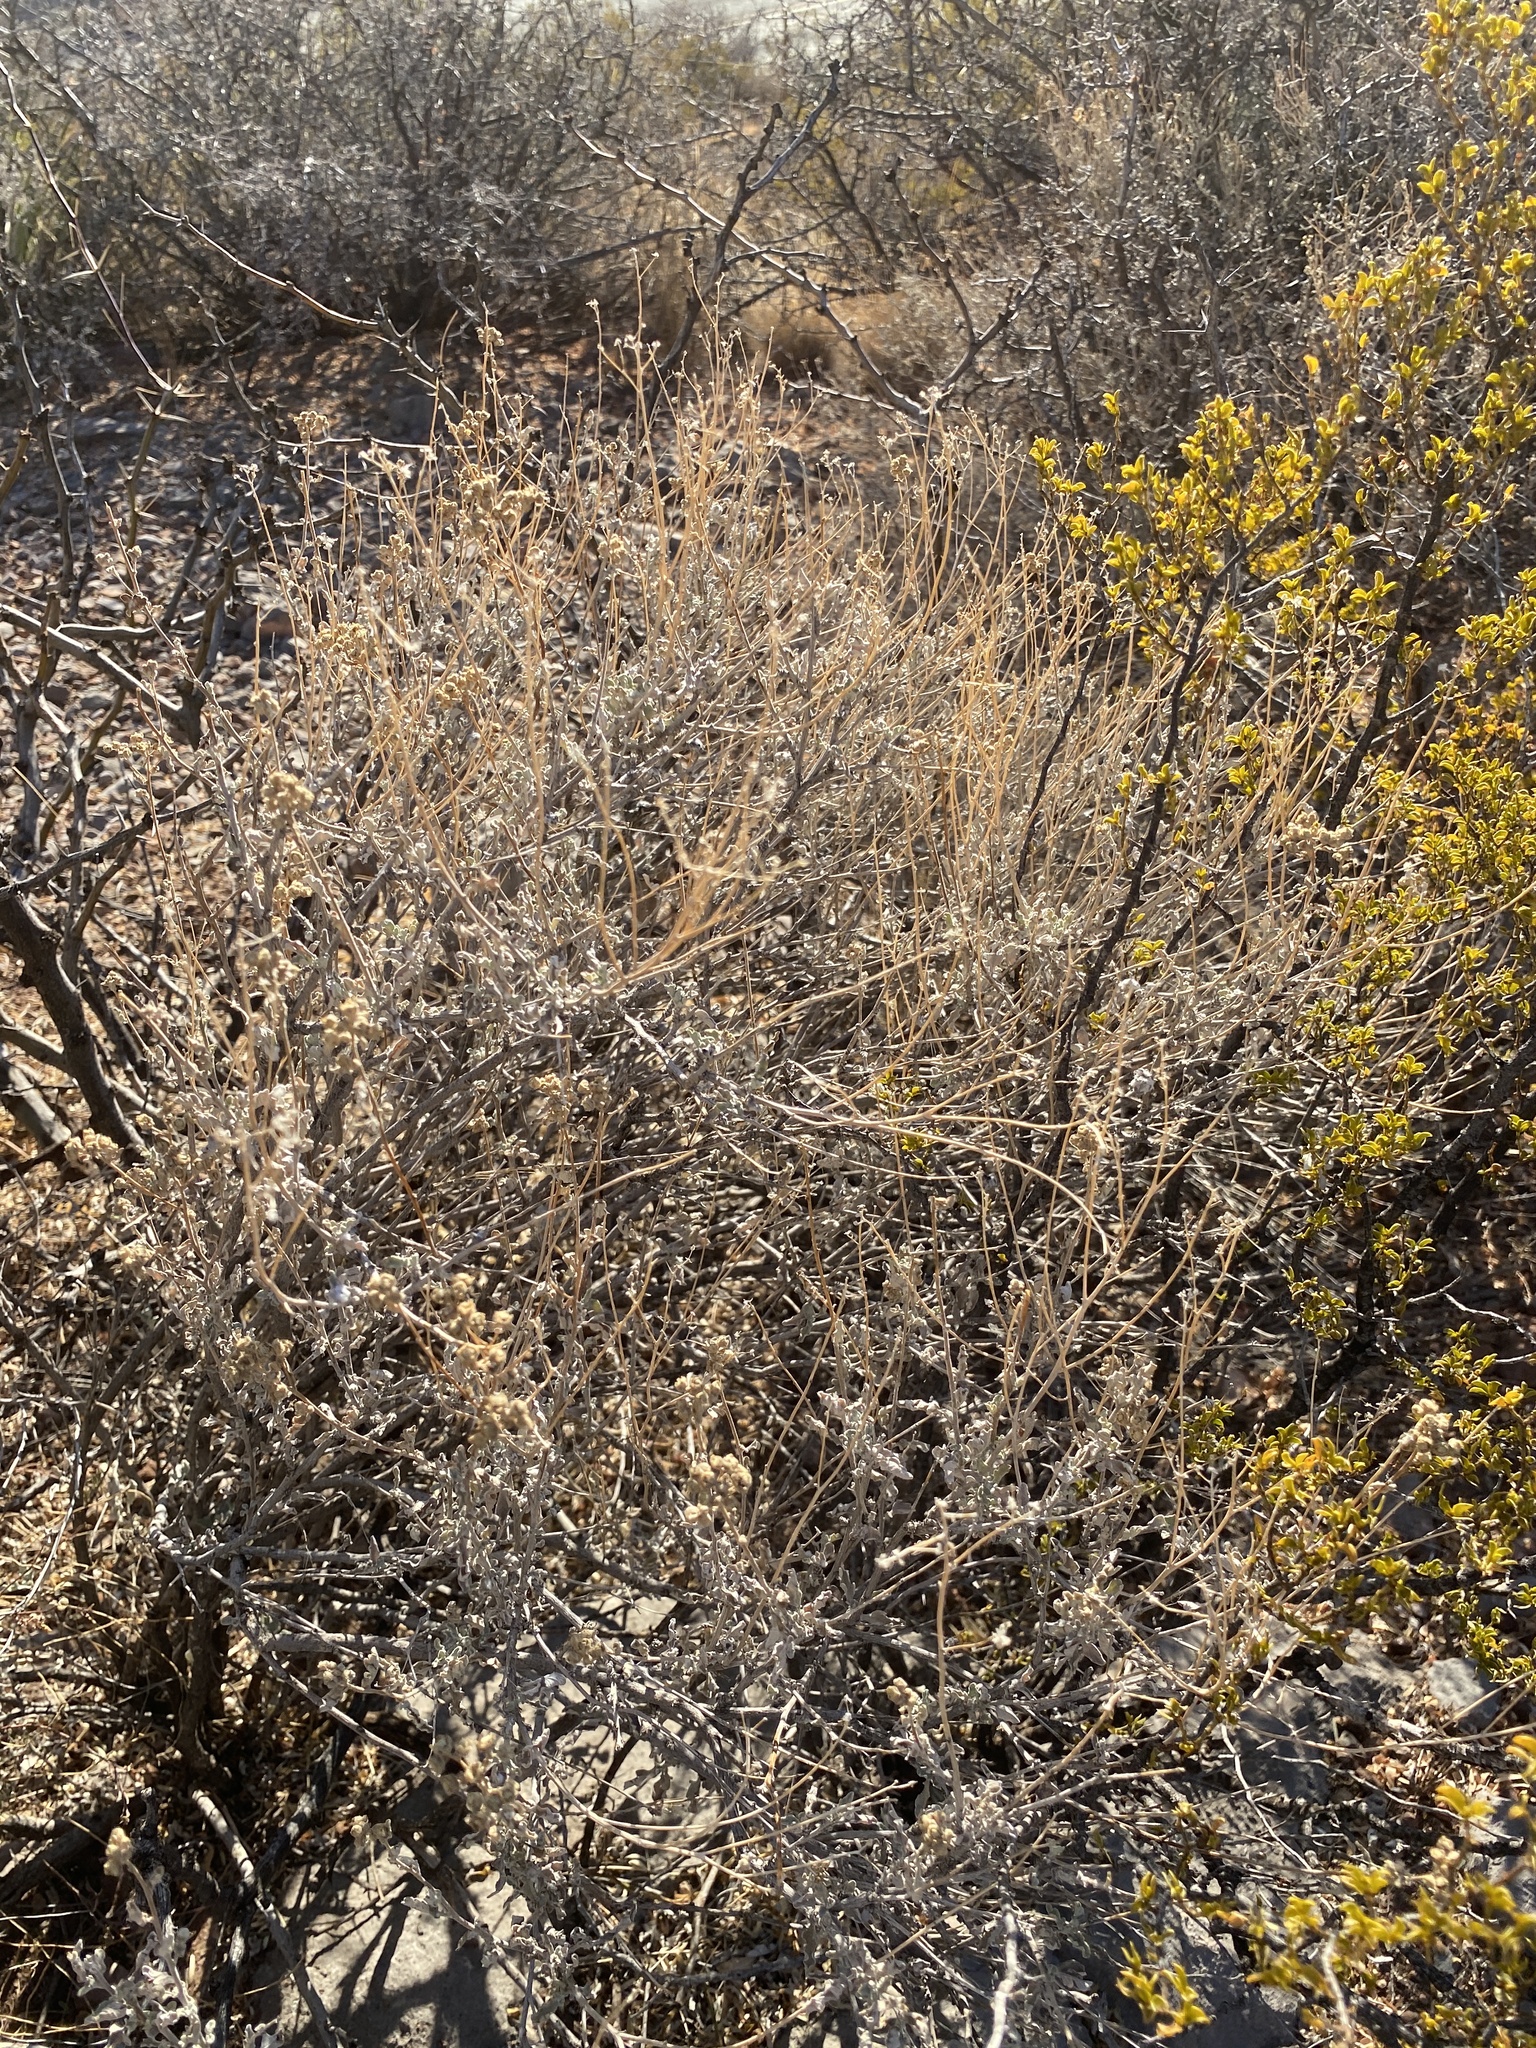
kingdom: Plantae
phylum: Tracheophyta
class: Magnoliopsida
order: Asterales
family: Asteraceae
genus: Parthenium
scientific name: Parthenium incanum
